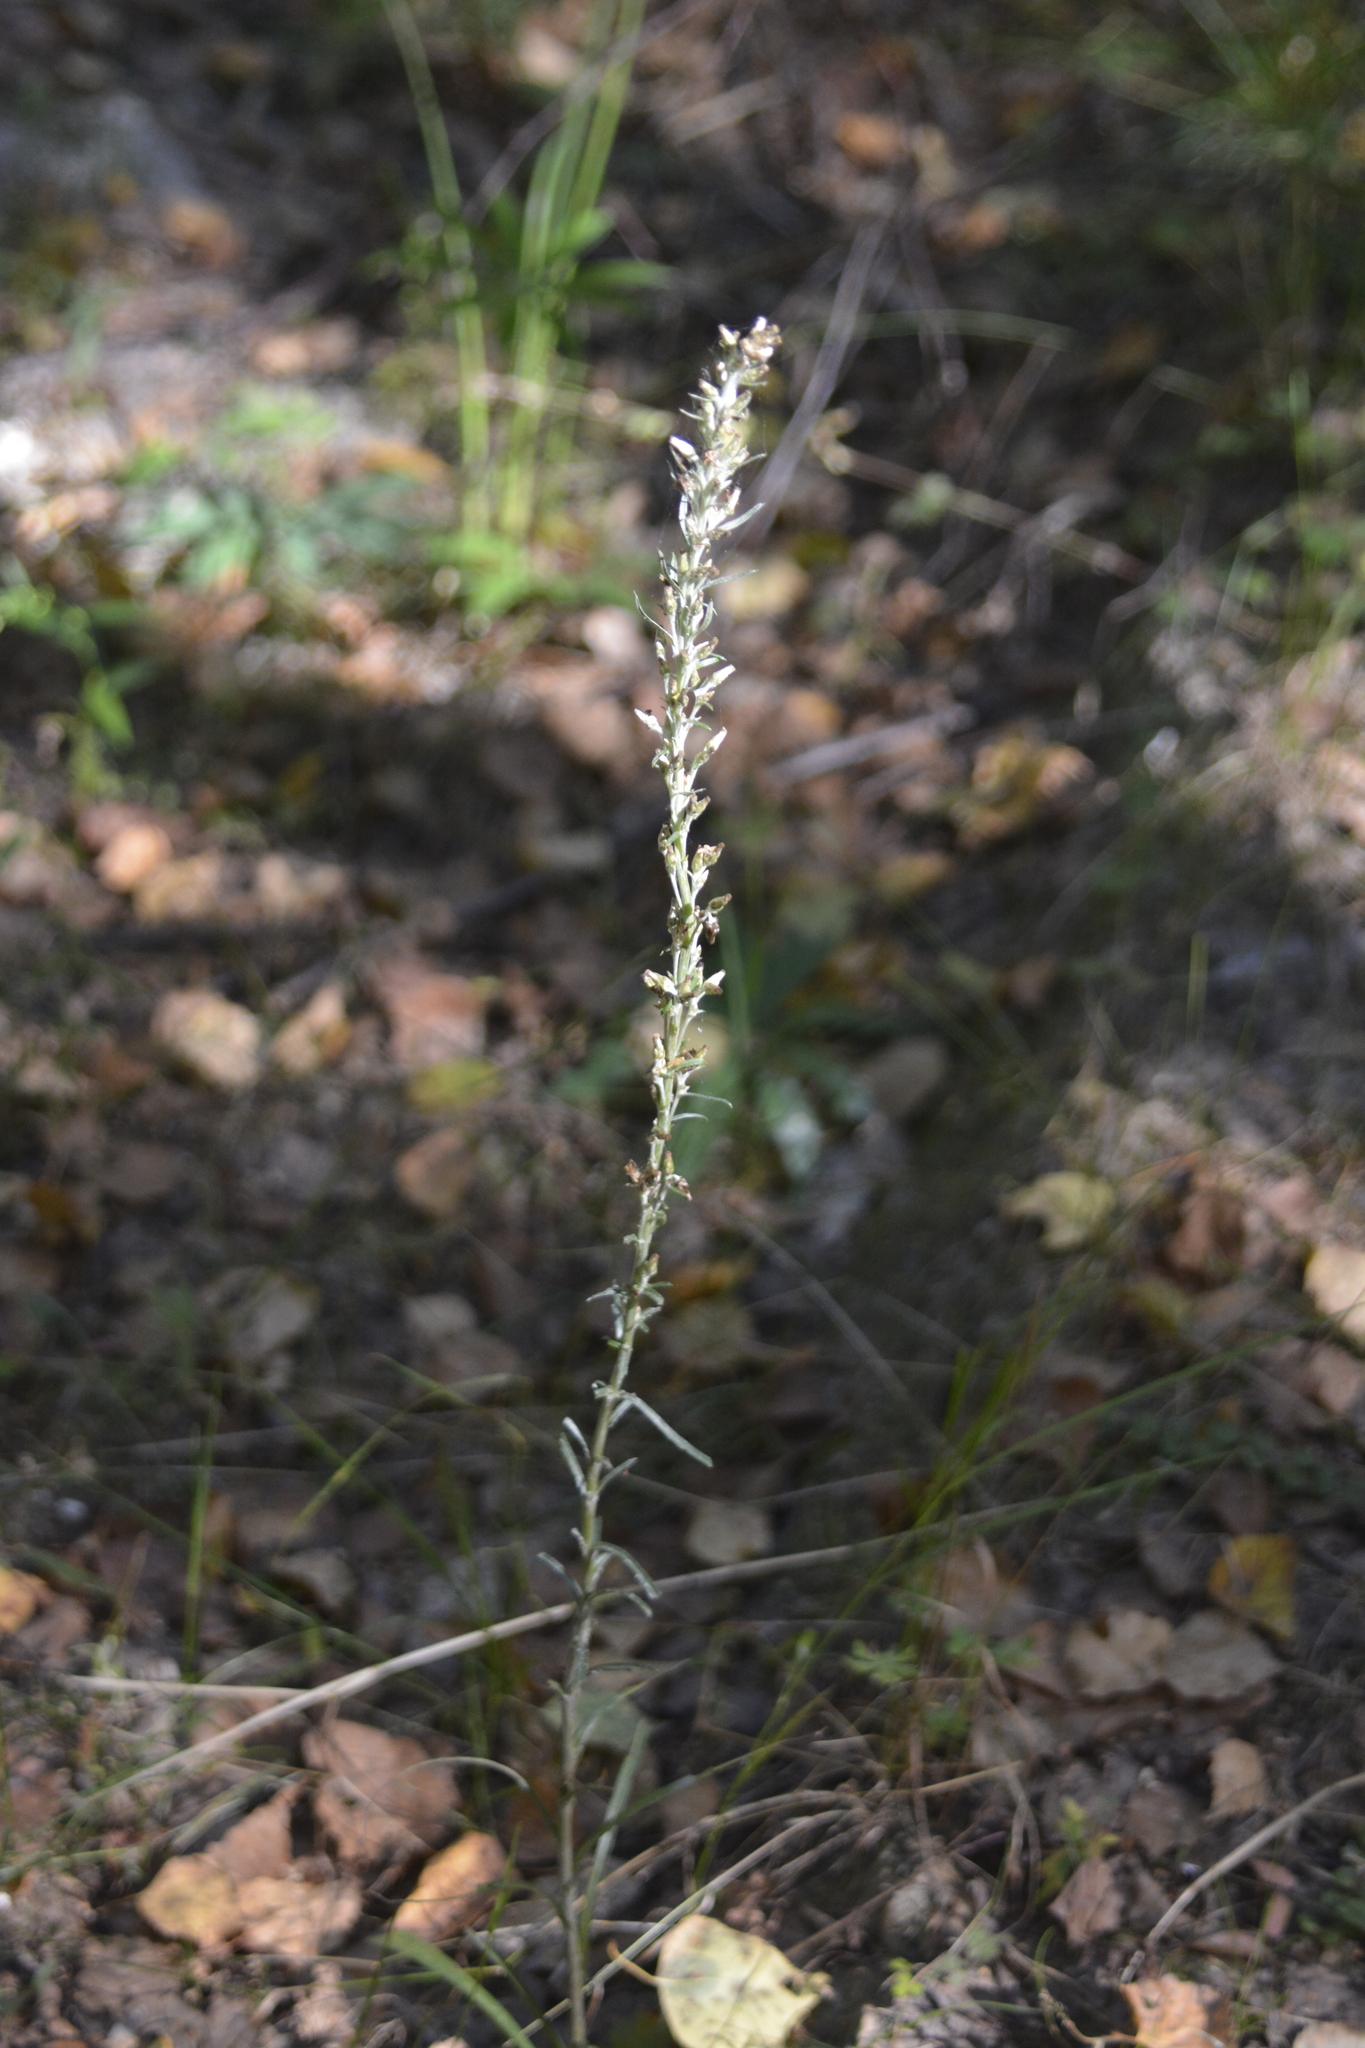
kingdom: Plantae
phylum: Tracheophyta
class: Magnoliopsida
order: Asterales
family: Asteraceae
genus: Omalotheca
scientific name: Omalotheca sylvatica
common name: Heath cudweed
